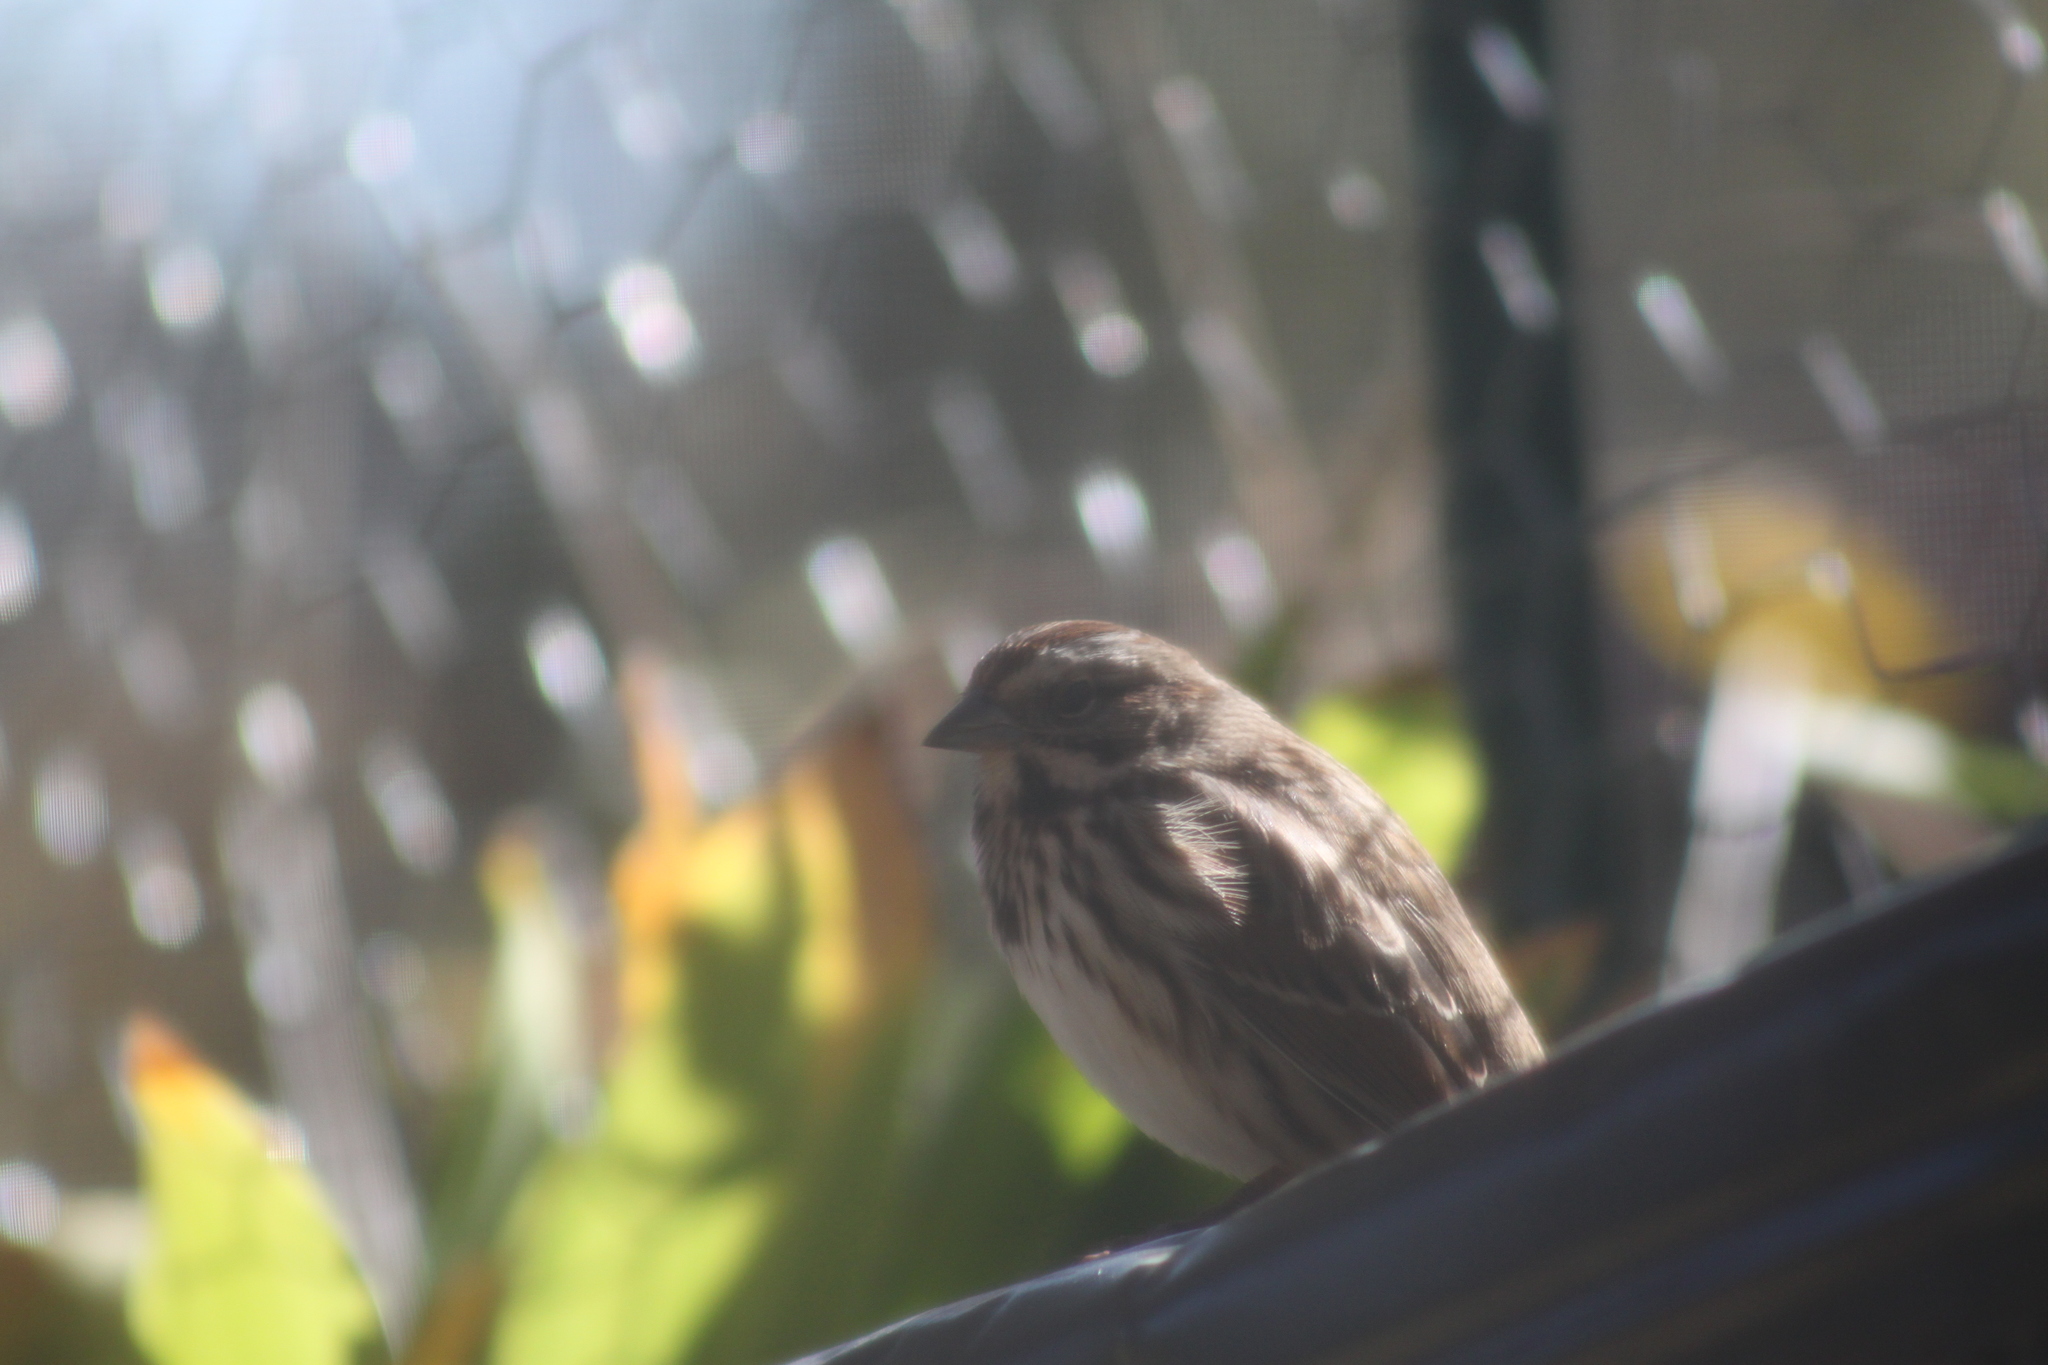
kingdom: Animalia
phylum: Chordata
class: Aves
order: Passeriformes
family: Passerellidae
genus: Melospiza
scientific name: Melospiza melodia
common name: Song sparrow
